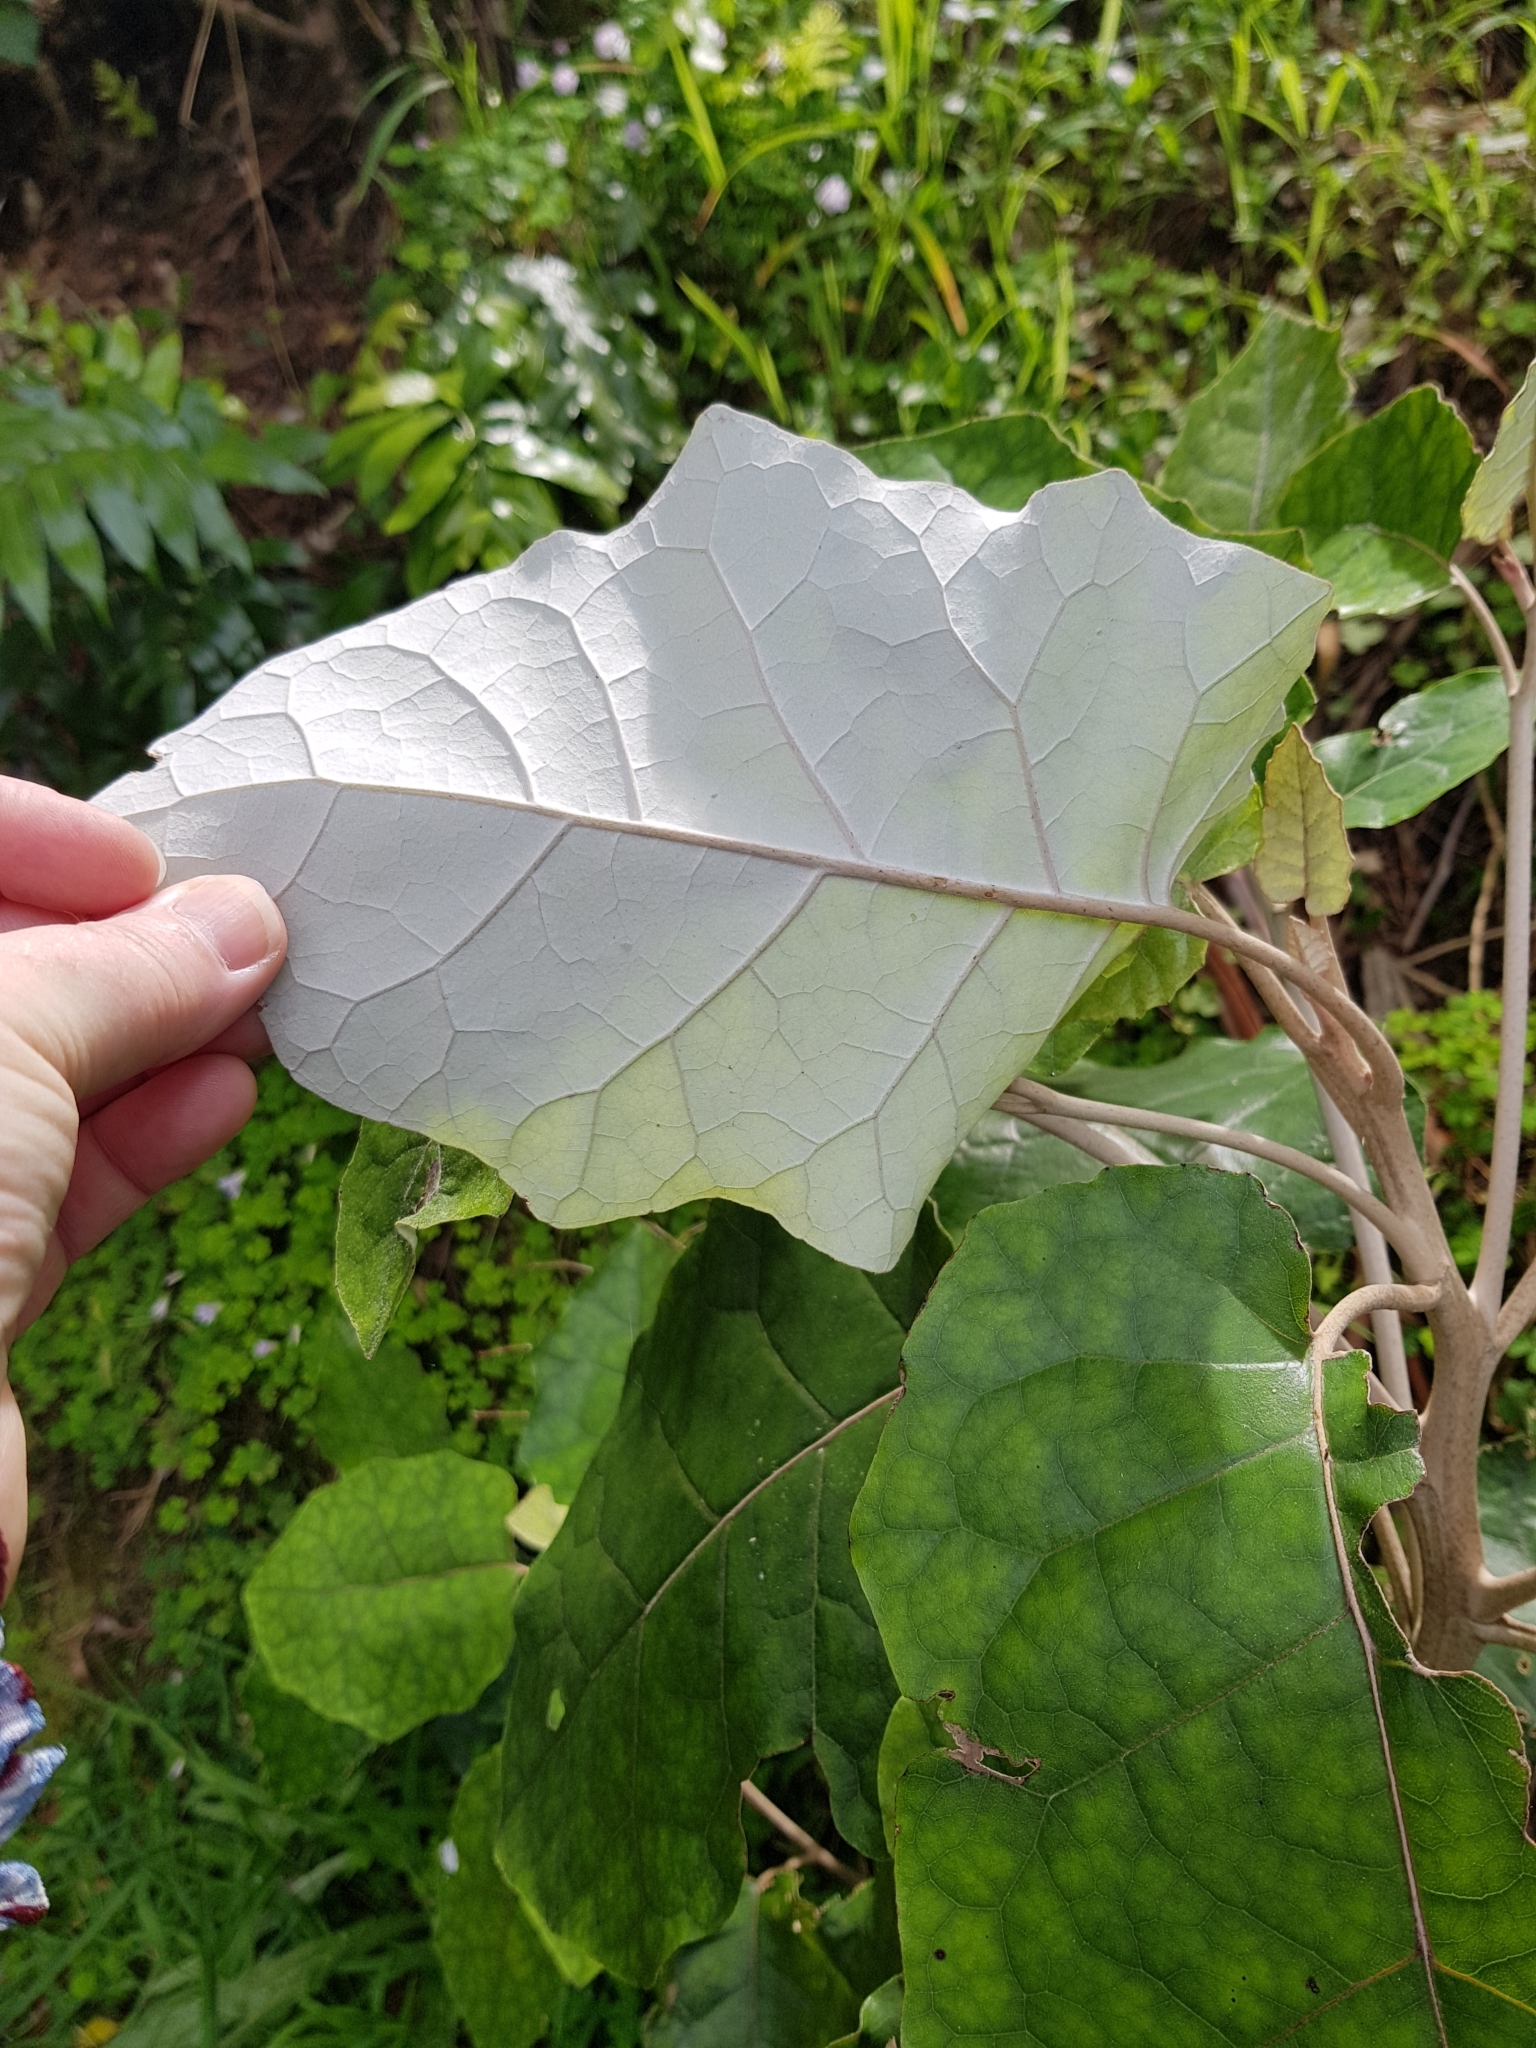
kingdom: Plantae
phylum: Tracheophyta
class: Magnoliopsida
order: Asterales
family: Asteraceae
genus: Brachyglottis
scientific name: Brachyglottis repanda
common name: Hedge ragwort
